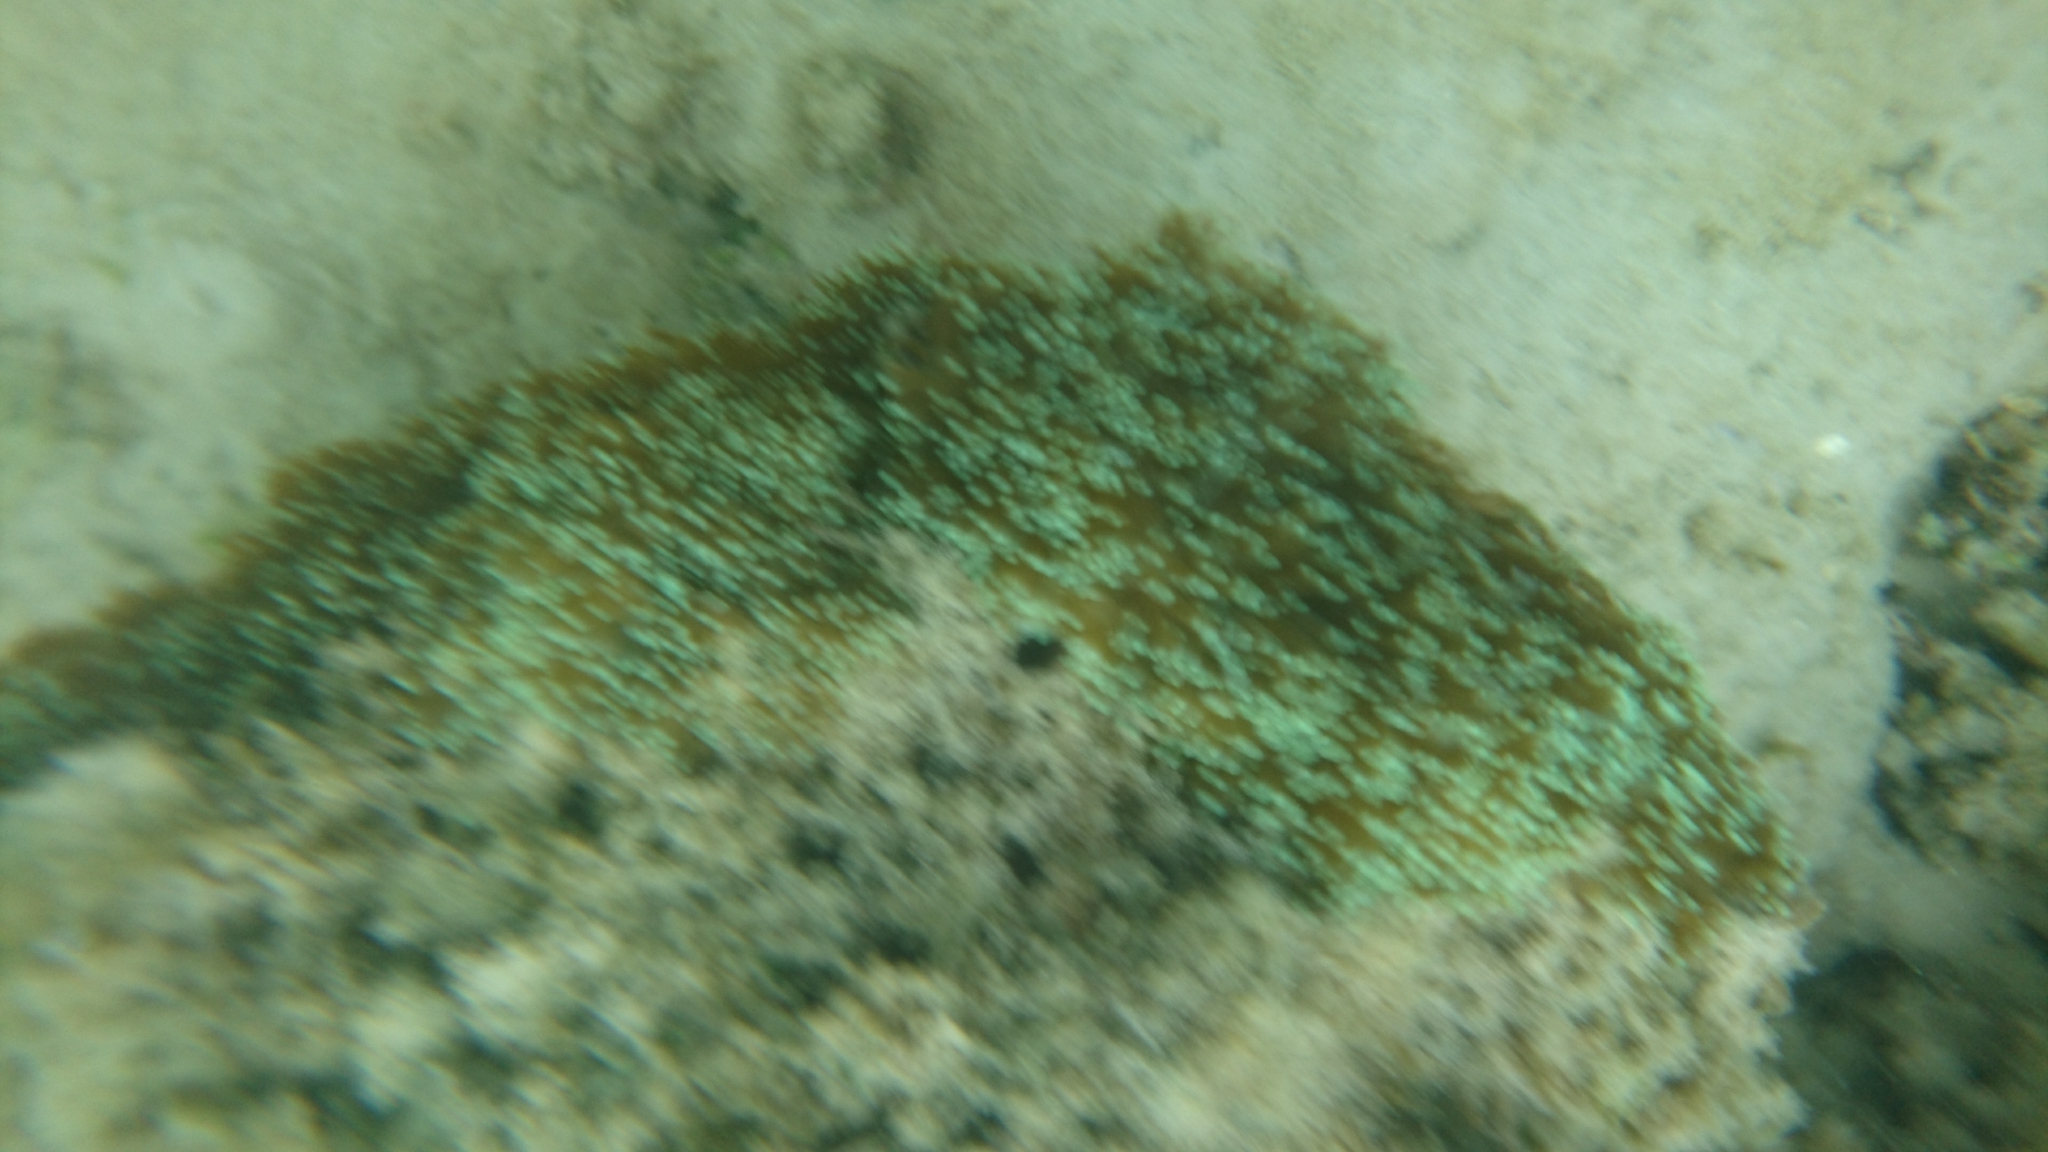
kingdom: Animalia
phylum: Cnidaria
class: Anthozoa
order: Scleractinia
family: Euphylliidae
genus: Galaxea
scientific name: Galaxea fascicularis
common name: Octopus coral
